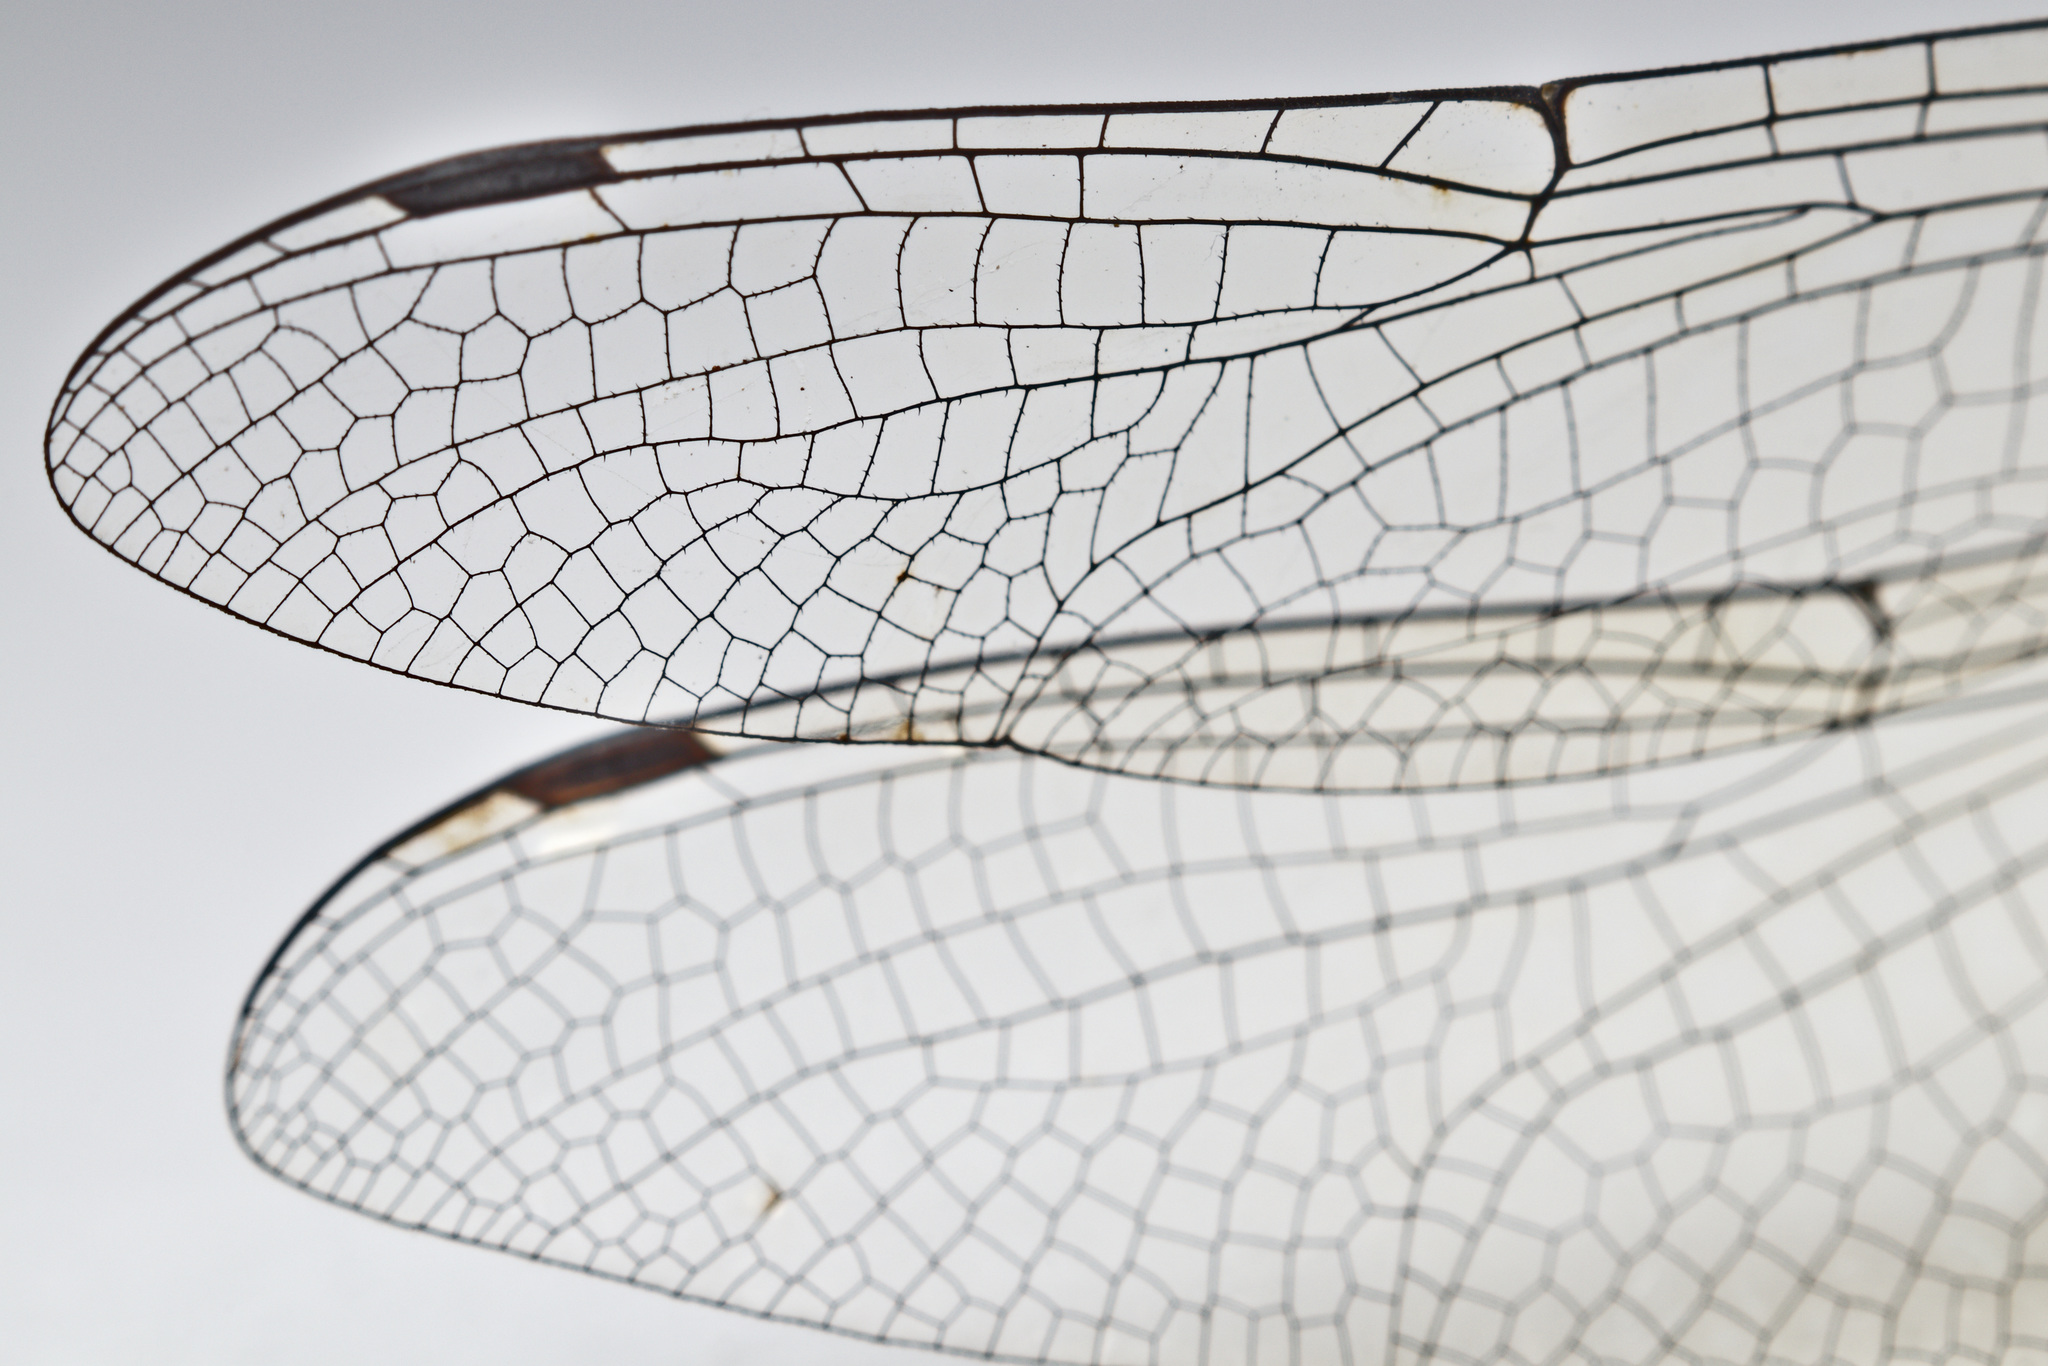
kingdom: Animalia
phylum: Arthropoda
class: Insecta
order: Odonata
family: Corduliidae
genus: Hemicordulia
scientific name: Hemicordulia armstrongi
